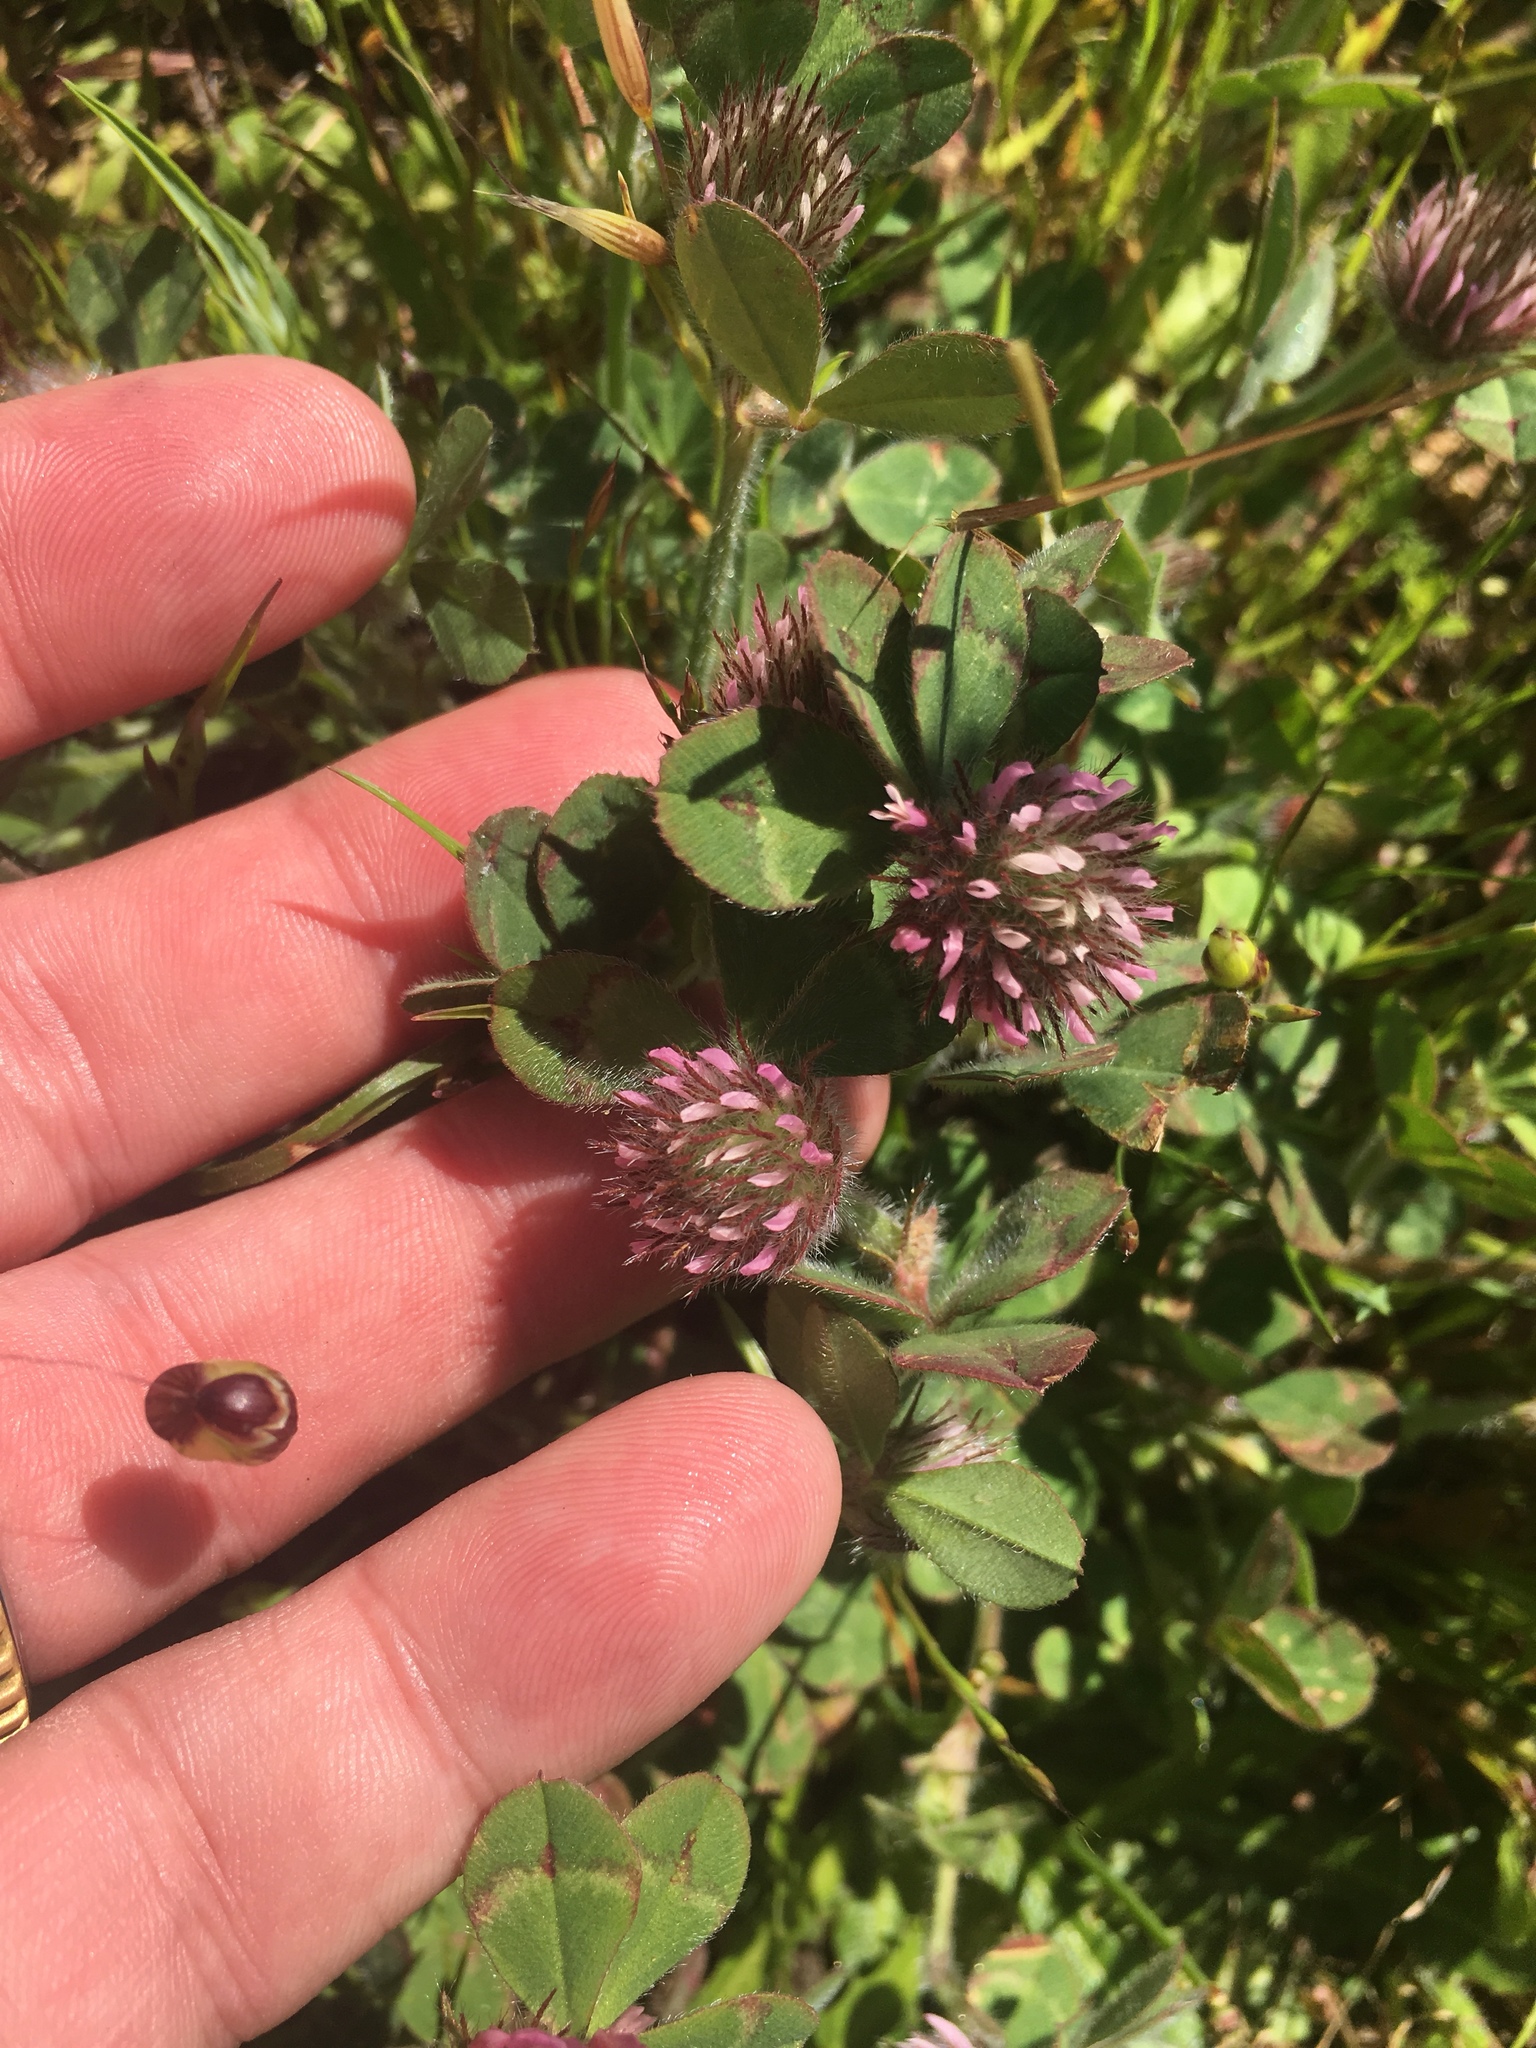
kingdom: Plantae
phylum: Tracheophyta
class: Magnoliopsida
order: Fabales
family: Fabaceae
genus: Trifolium
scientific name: Trifolium hirtum
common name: Rose clover
